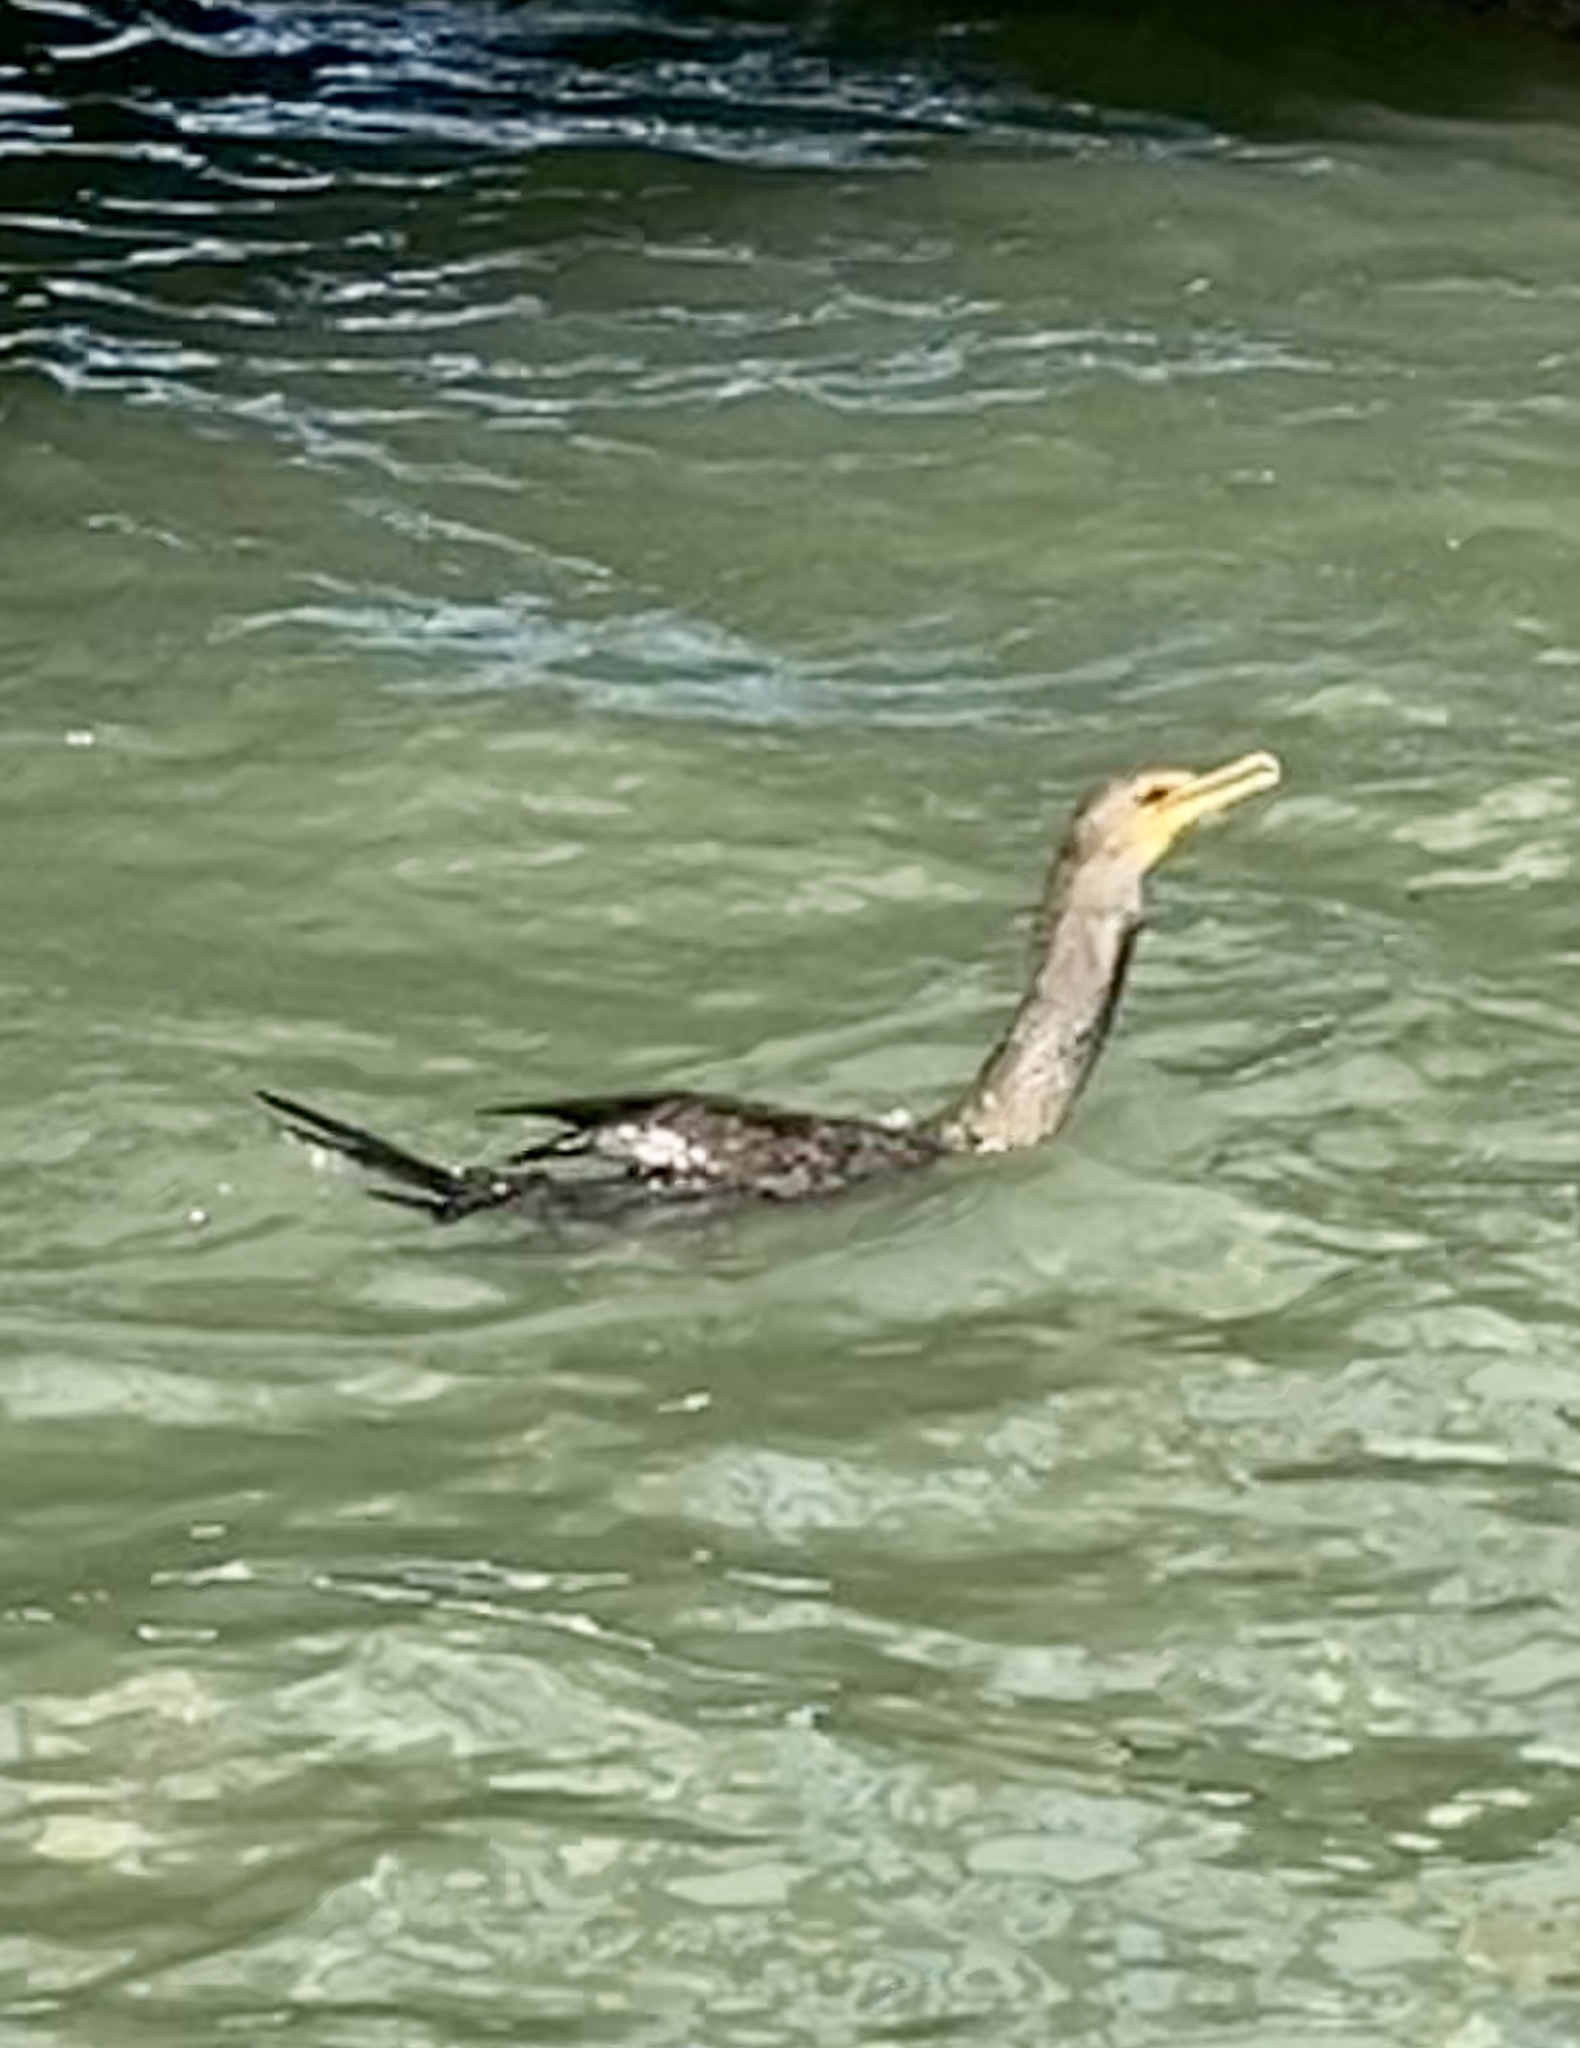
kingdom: Animalia
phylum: Chordata
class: Aves
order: Suliformes
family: Phalacrocoracidae
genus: Phalacrocorax
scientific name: Phalacrocorax auritus
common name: Double-crested cormorant
